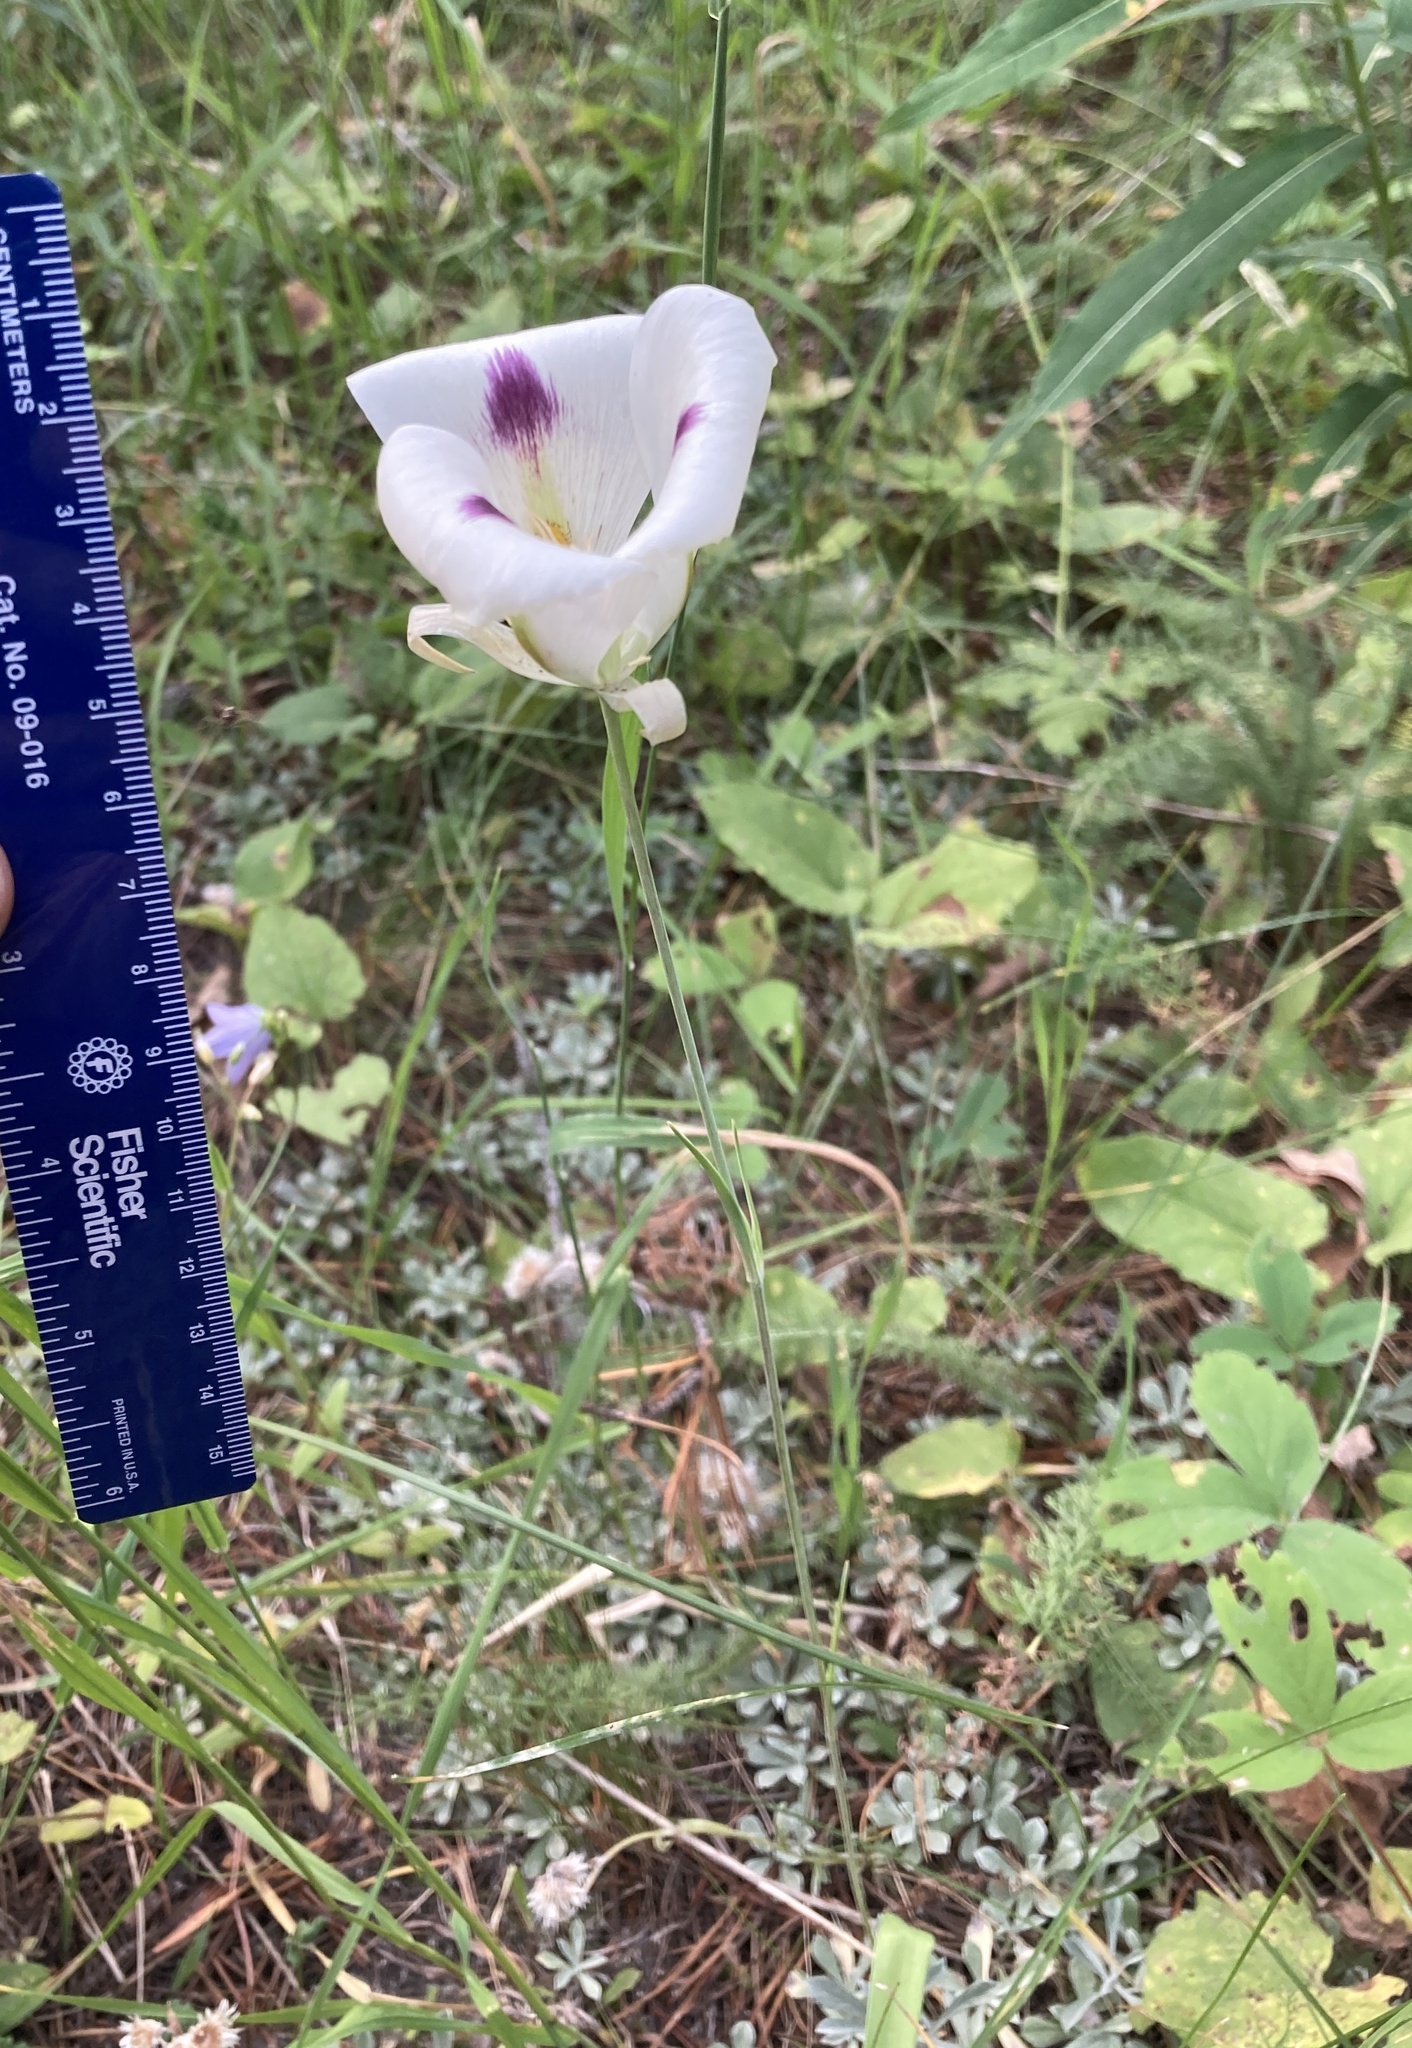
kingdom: Plantae
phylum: Tracheophyta
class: Liliopsida
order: Liliales
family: Liliaceae
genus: Calochortus
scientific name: Calochortus eurycarpus
